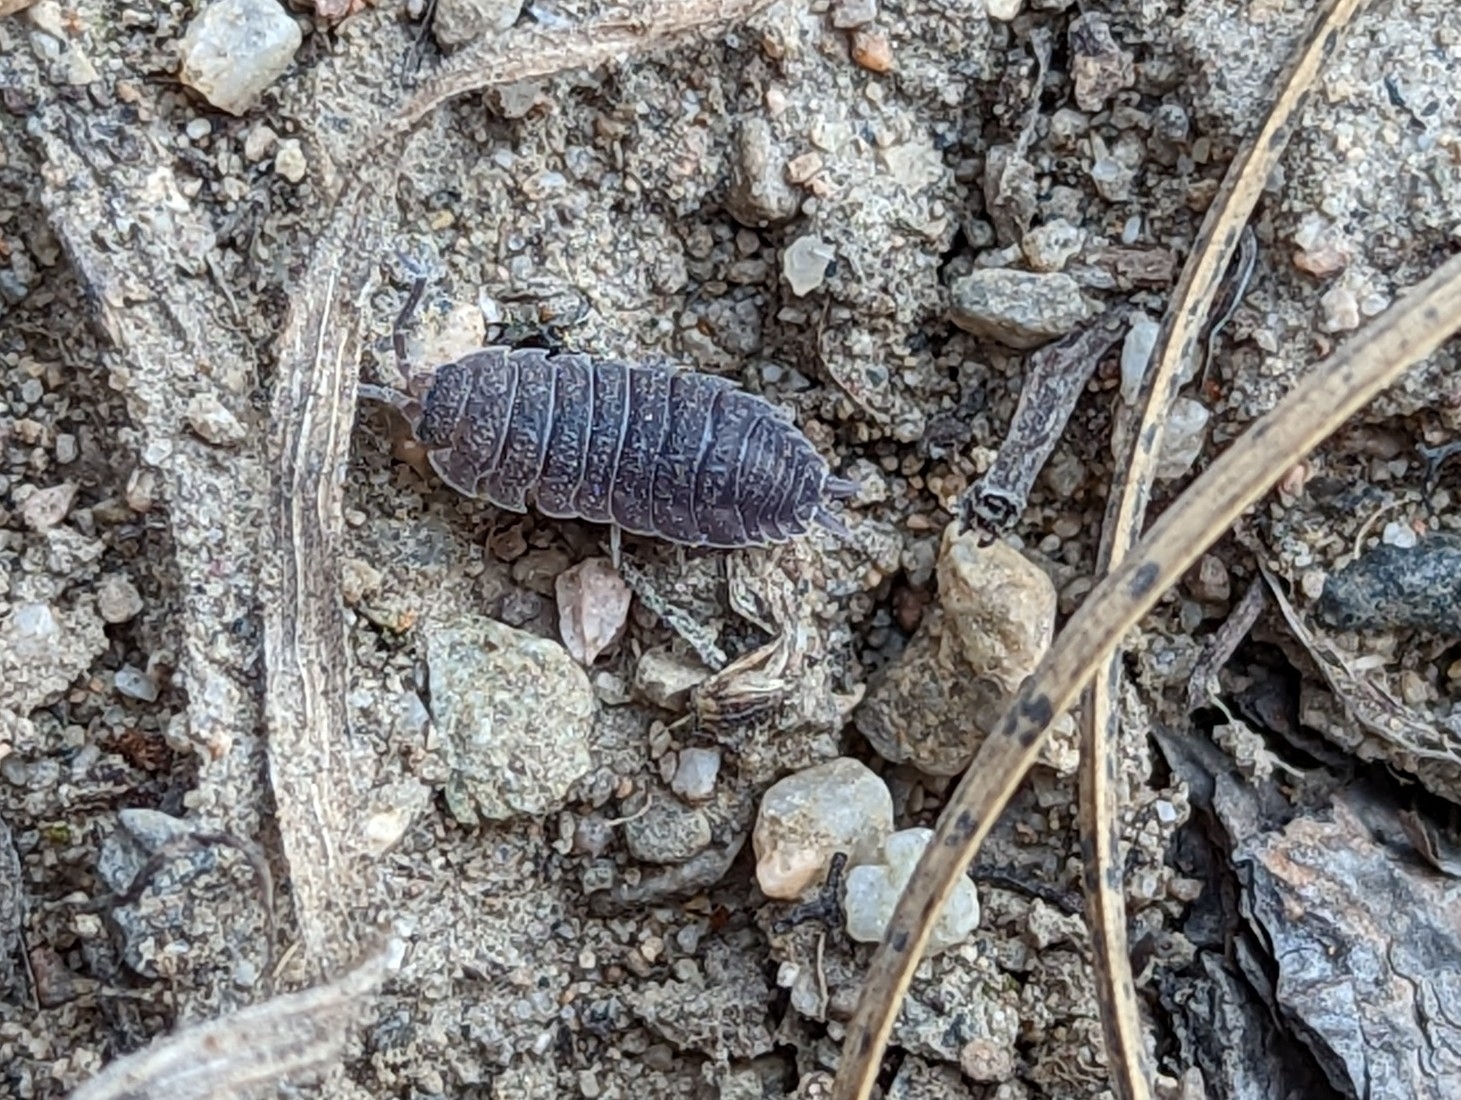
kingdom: Animalia
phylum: Arthropoda
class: Malacostraca
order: Isopoda
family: Porcellionidae
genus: Porcellio
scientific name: Porcellio scaber
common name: Common rough woodlouse
